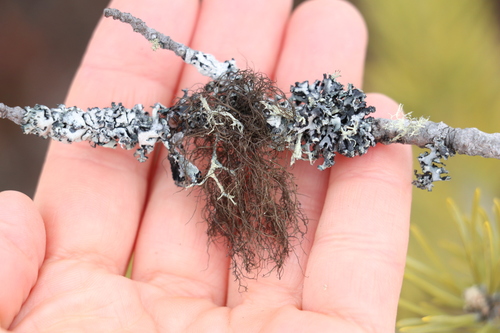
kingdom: Fungi
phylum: Ascomycota
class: Lecanoromycetes
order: Lecanorales
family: Parmeliaceae
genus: Bryoria
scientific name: Bryoria
